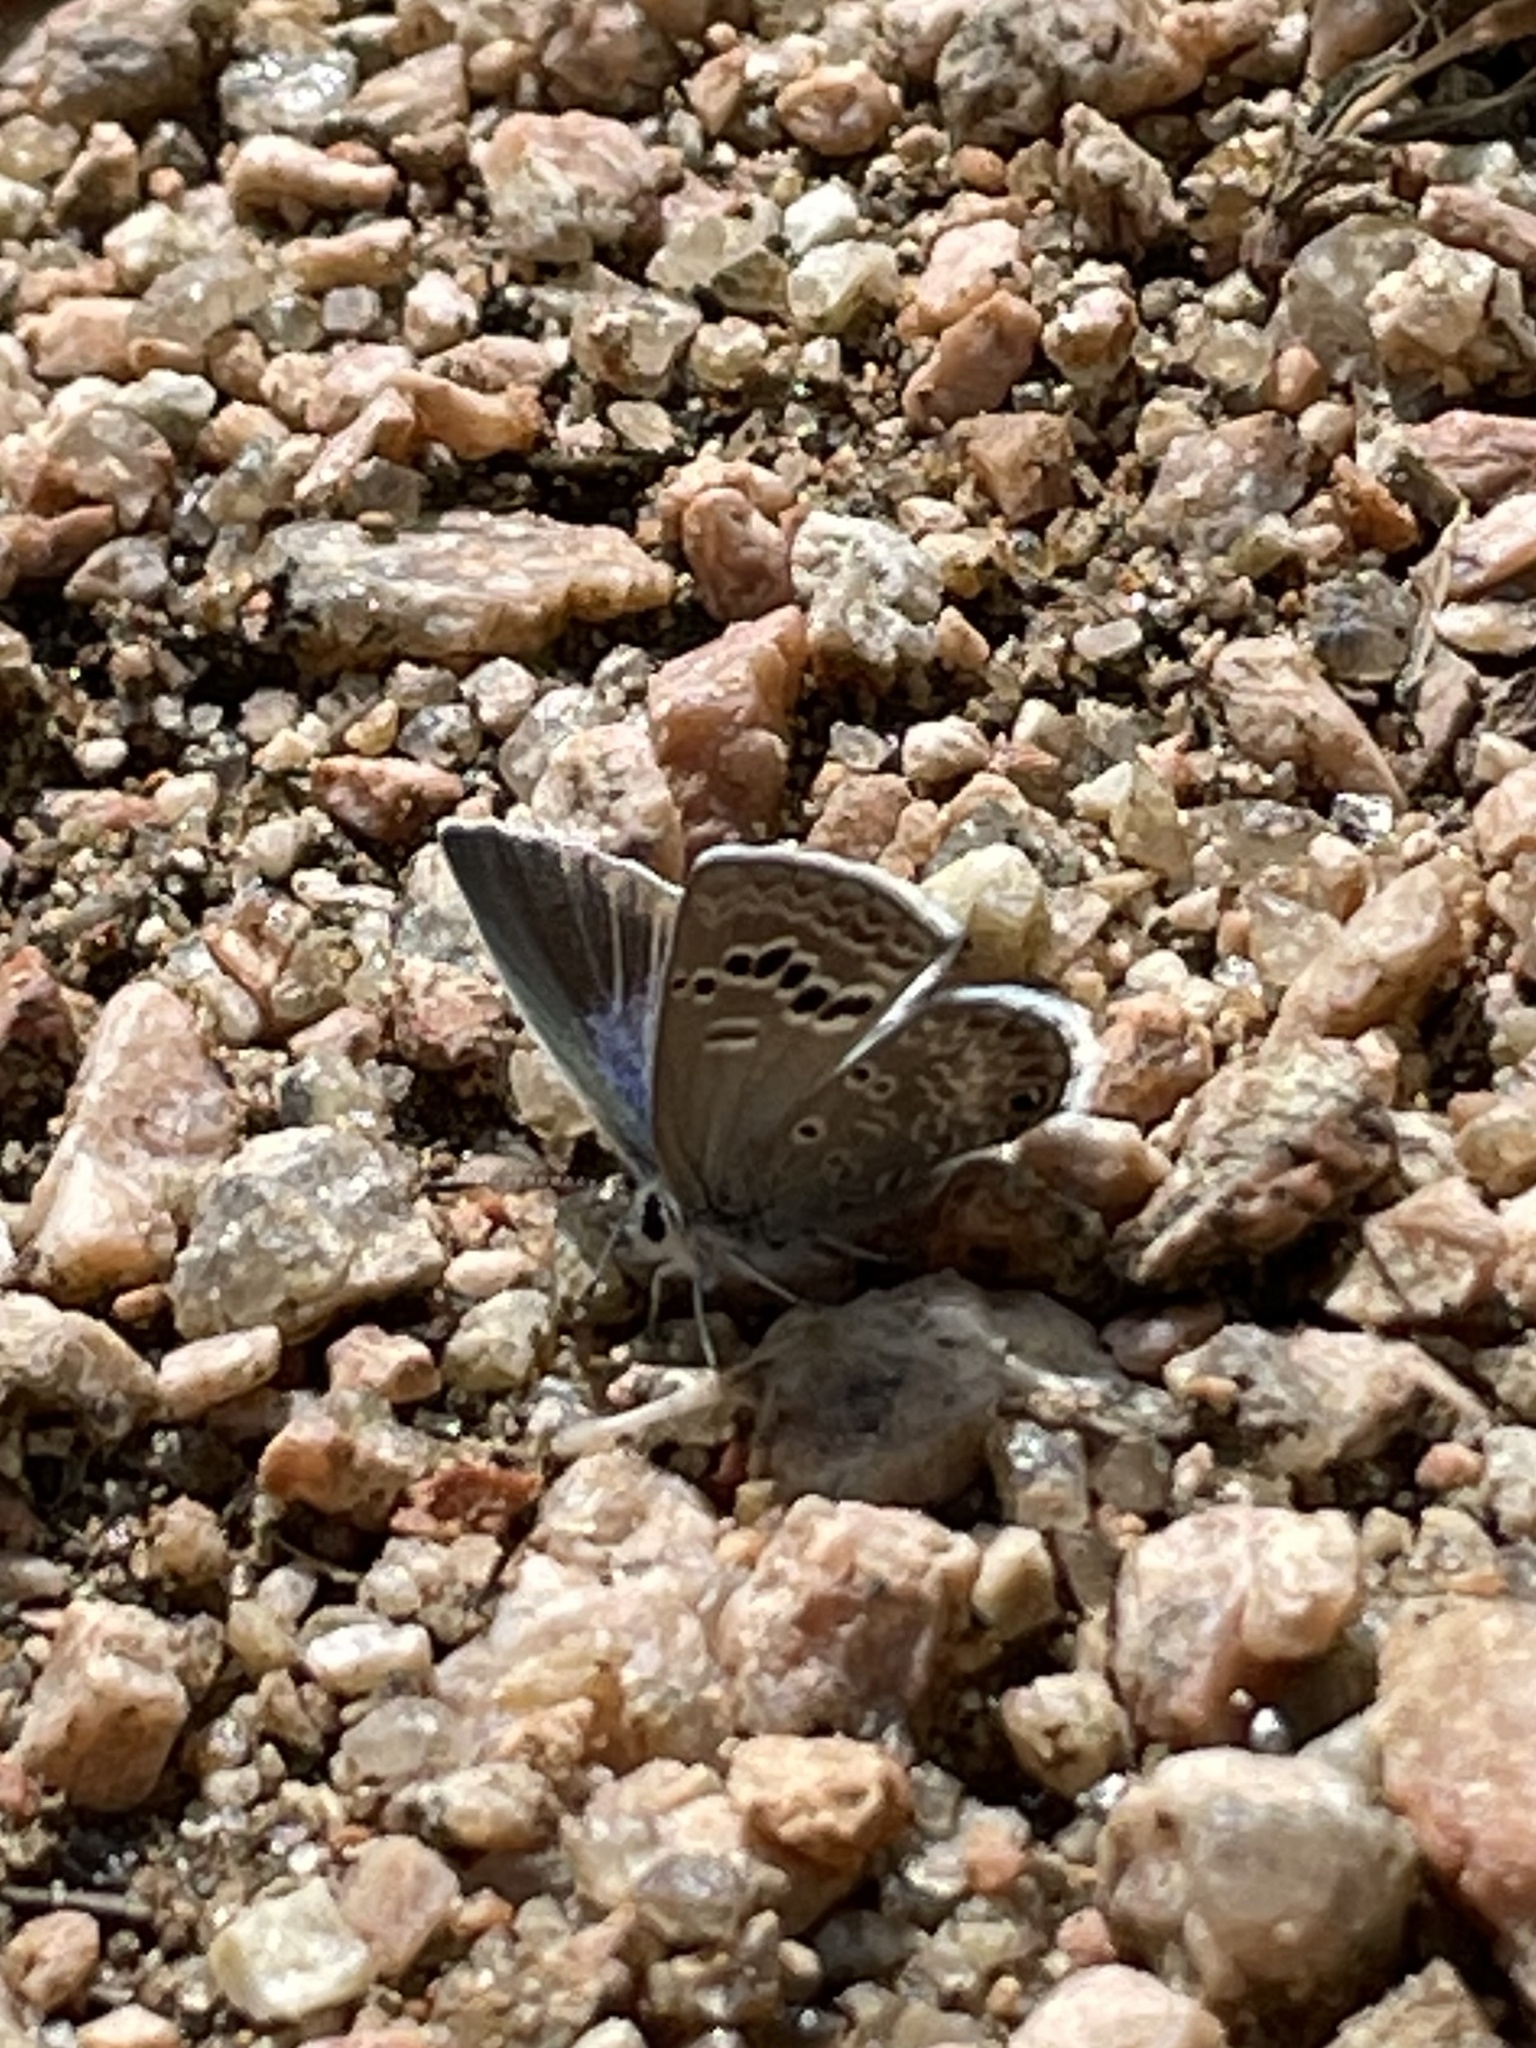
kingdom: Animalia
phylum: Arthropoda
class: Insecta
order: Lepidoptera
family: Lycaenidae
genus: Echinargus
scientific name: Echinargus isola
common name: Reakirt's blue
